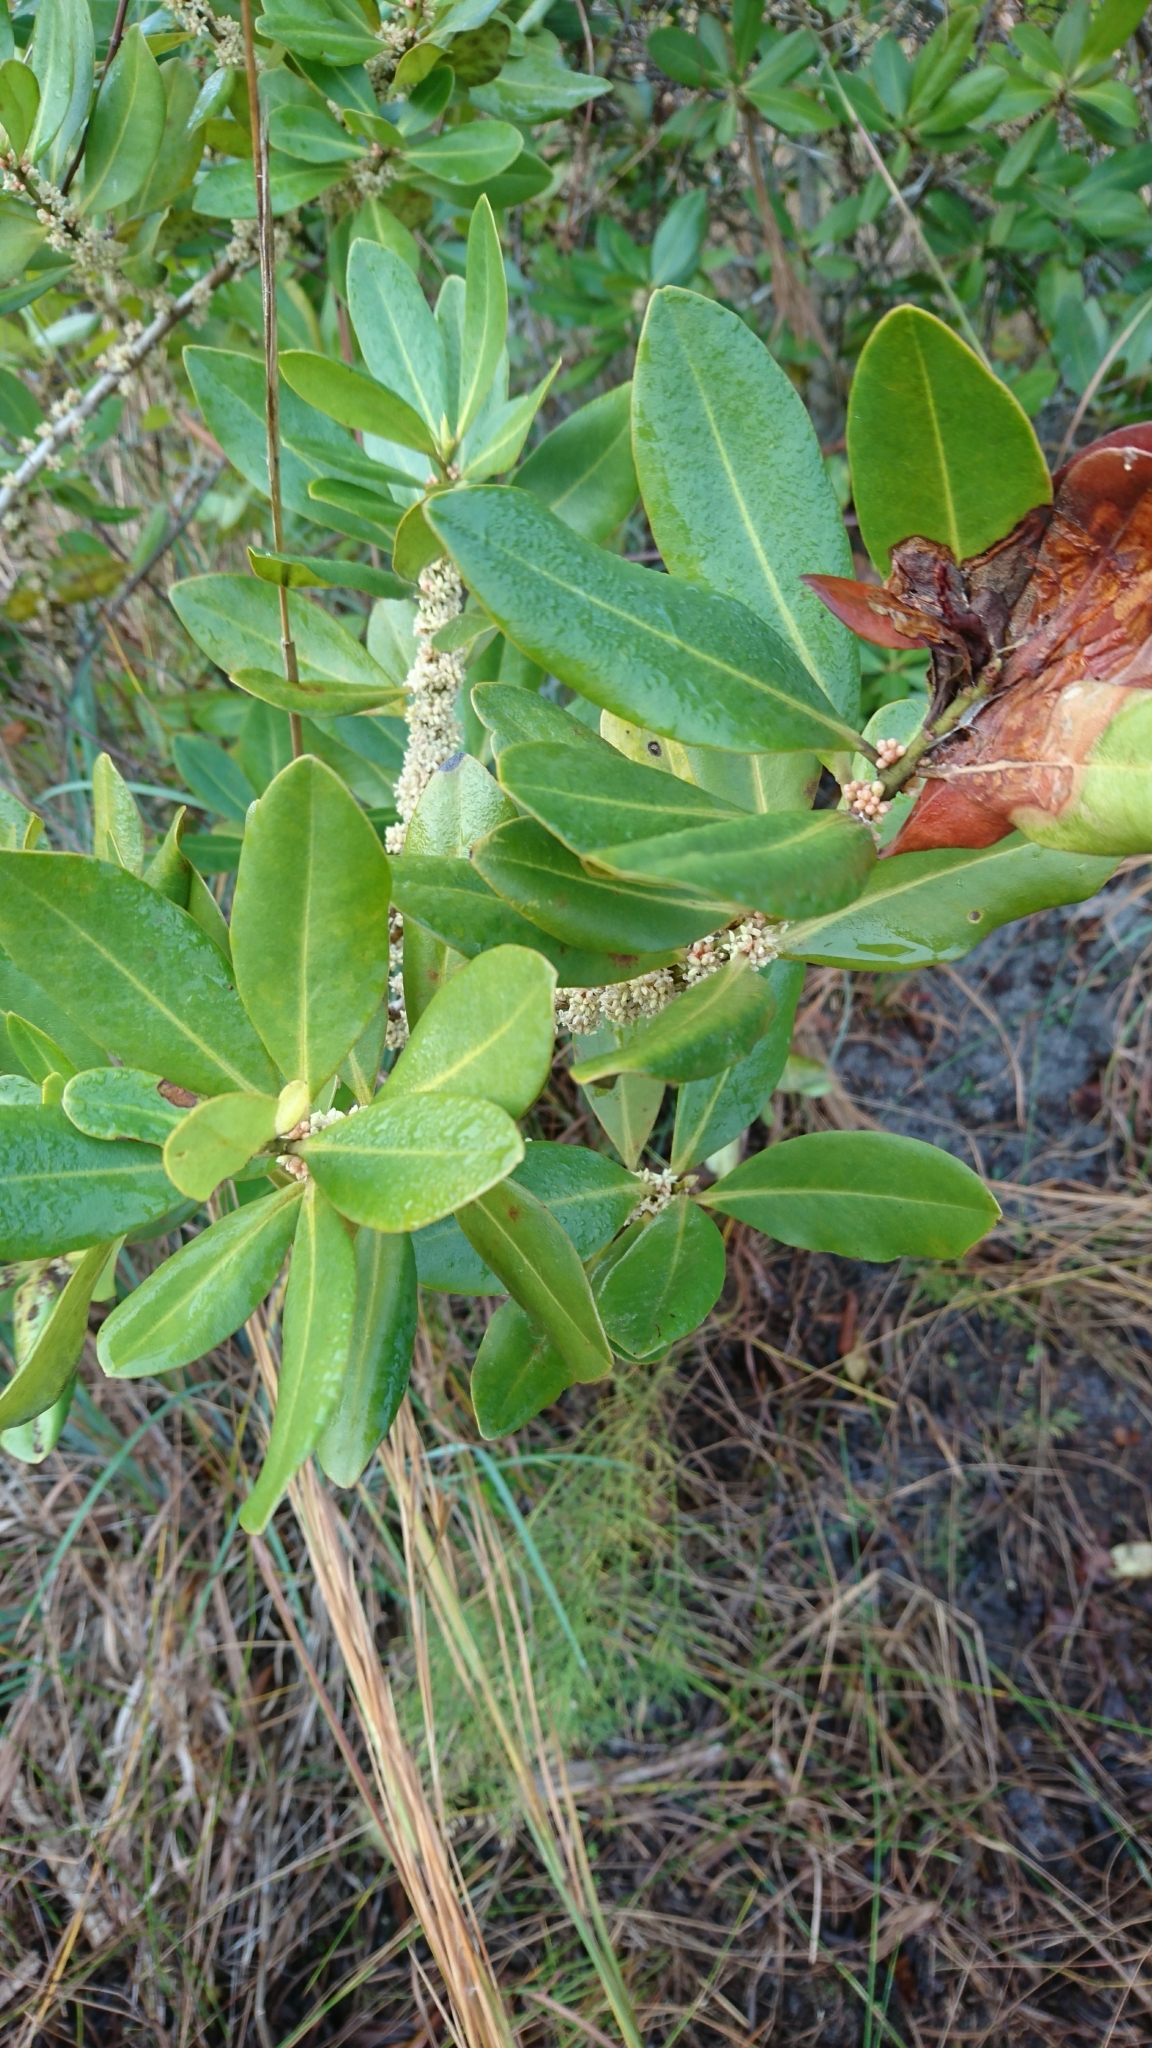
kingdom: Plantae
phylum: Tracheophyta
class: Magnoliopsida
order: Ericales
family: Primulaceae
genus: Myrsine
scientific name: Myrsine floridana
